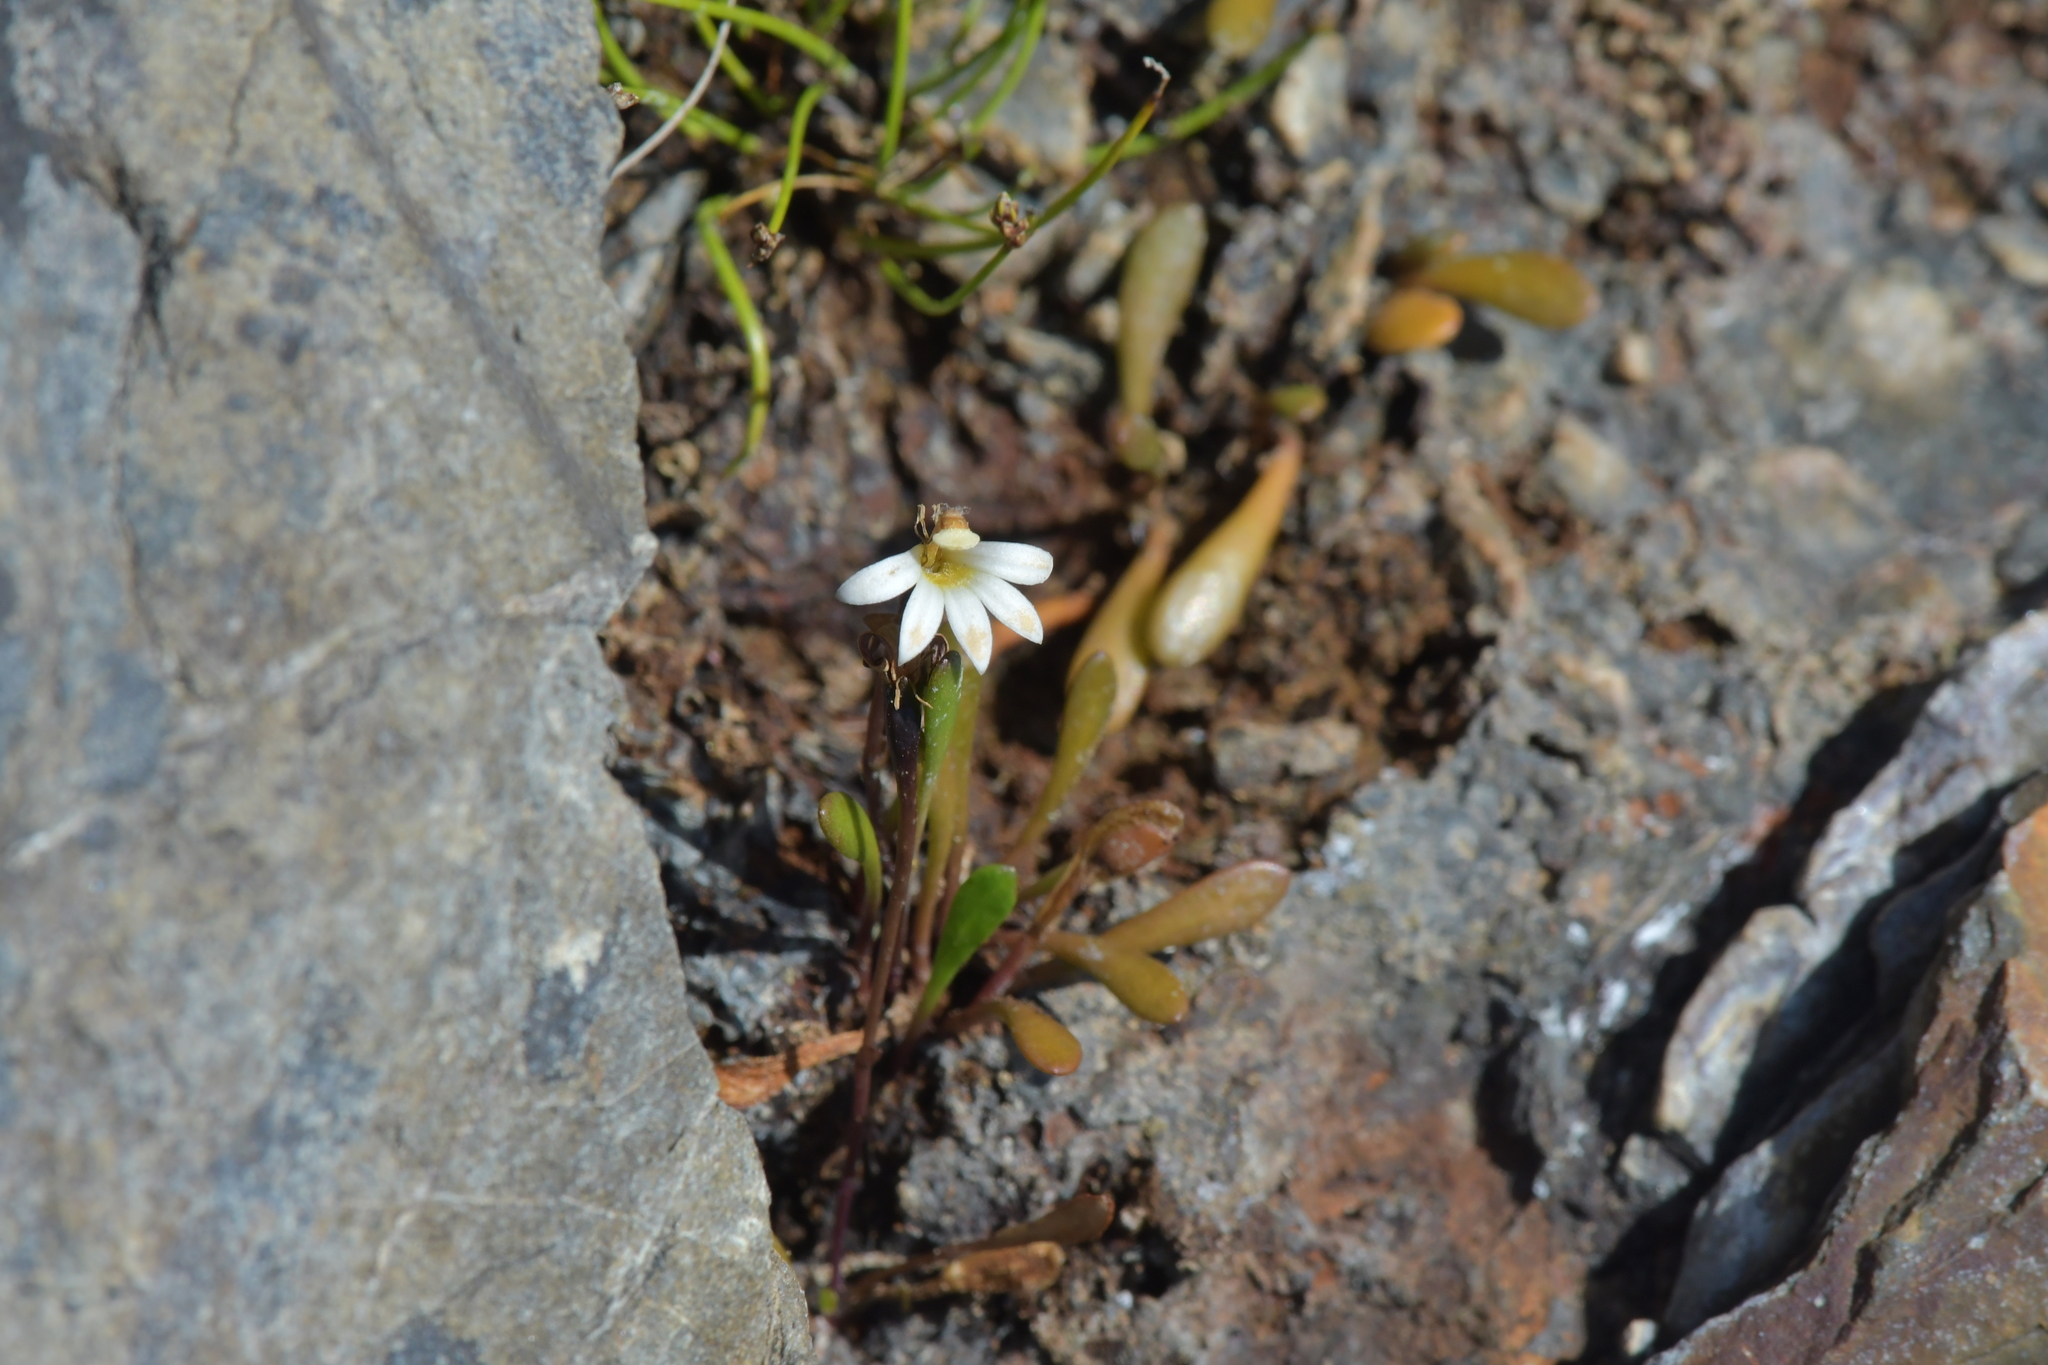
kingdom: Plantae
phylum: Tracheophyta
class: Magnoliopsida
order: Asterales
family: Goodeniaceae
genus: Goodenia
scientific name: Goodenia radicans
